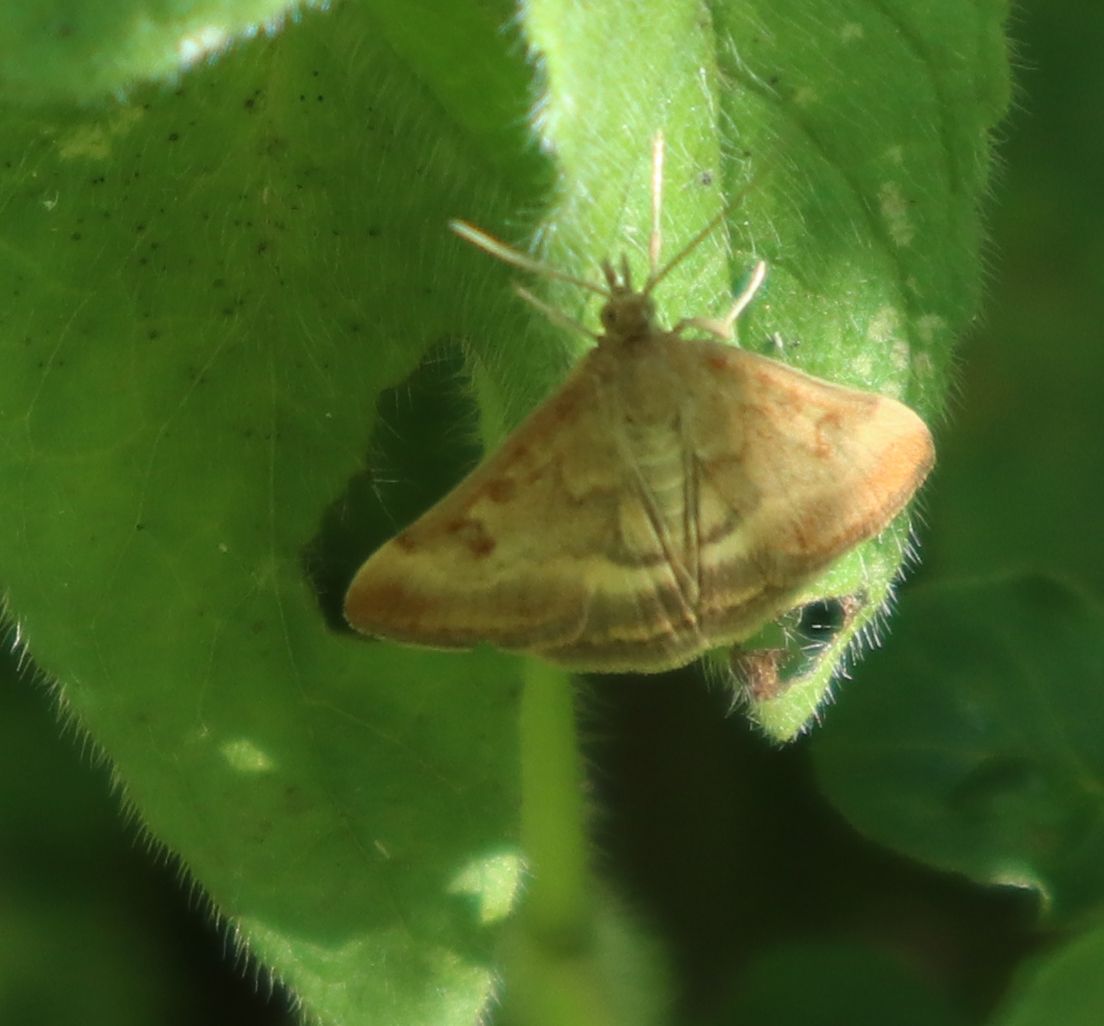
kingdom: Animalia
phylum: Arthropoda
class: Insecta
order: Lepidoptera
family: Crambidae
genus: Pyrausta
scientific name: Pyrausta despicata
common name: Straw-barred pearl
